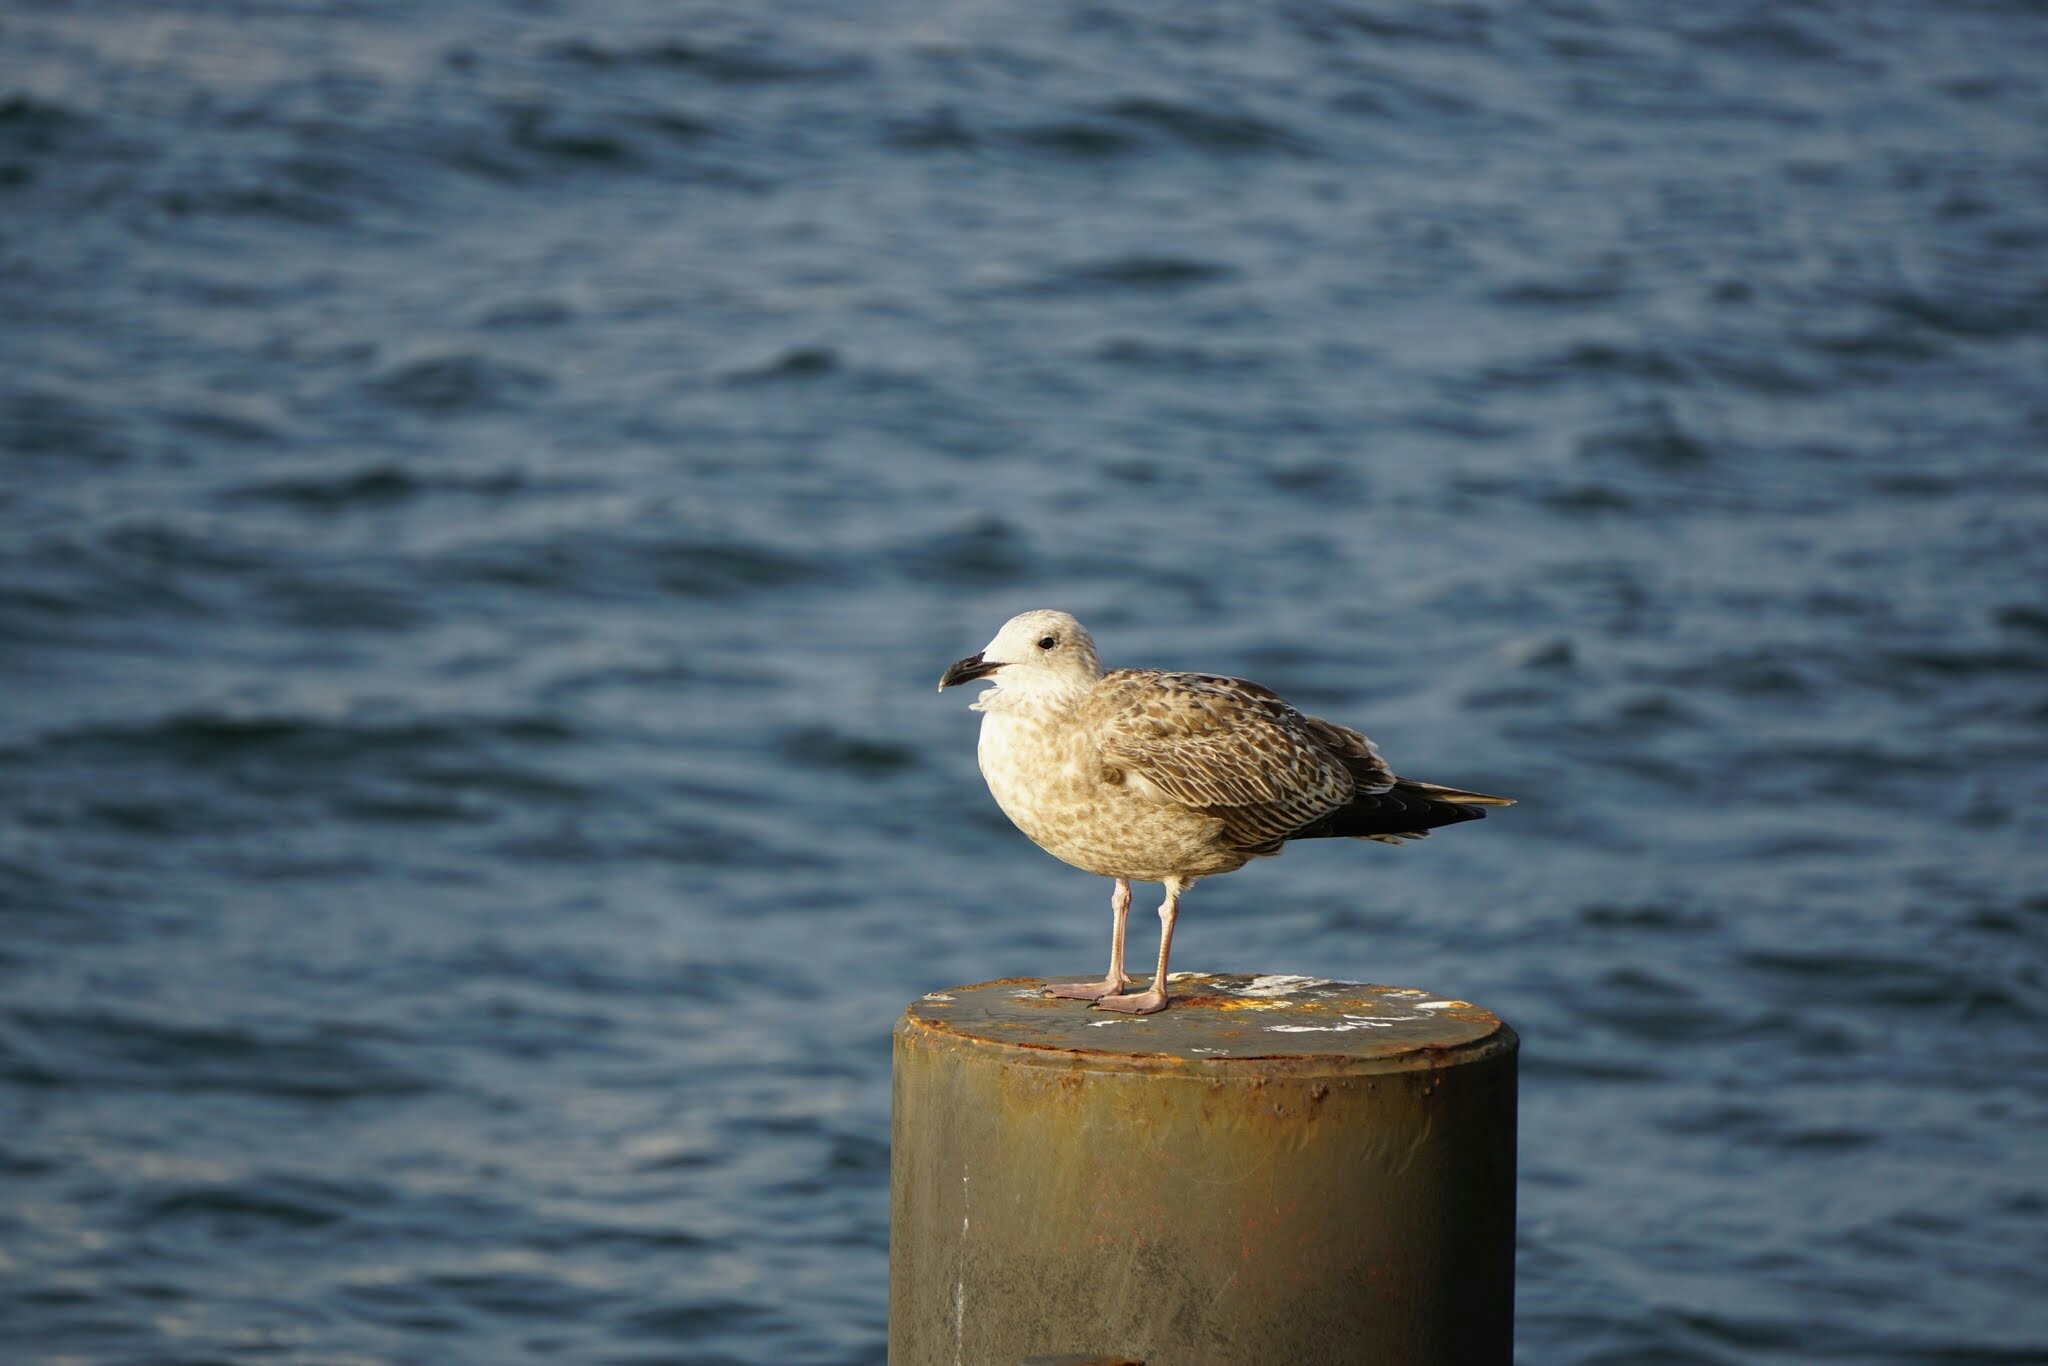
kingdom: Animalia
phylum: Chordata
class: Aves
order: Charadriiformes
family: Laridae
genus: Larus
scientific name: Larus argentatus
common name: Herring gull
